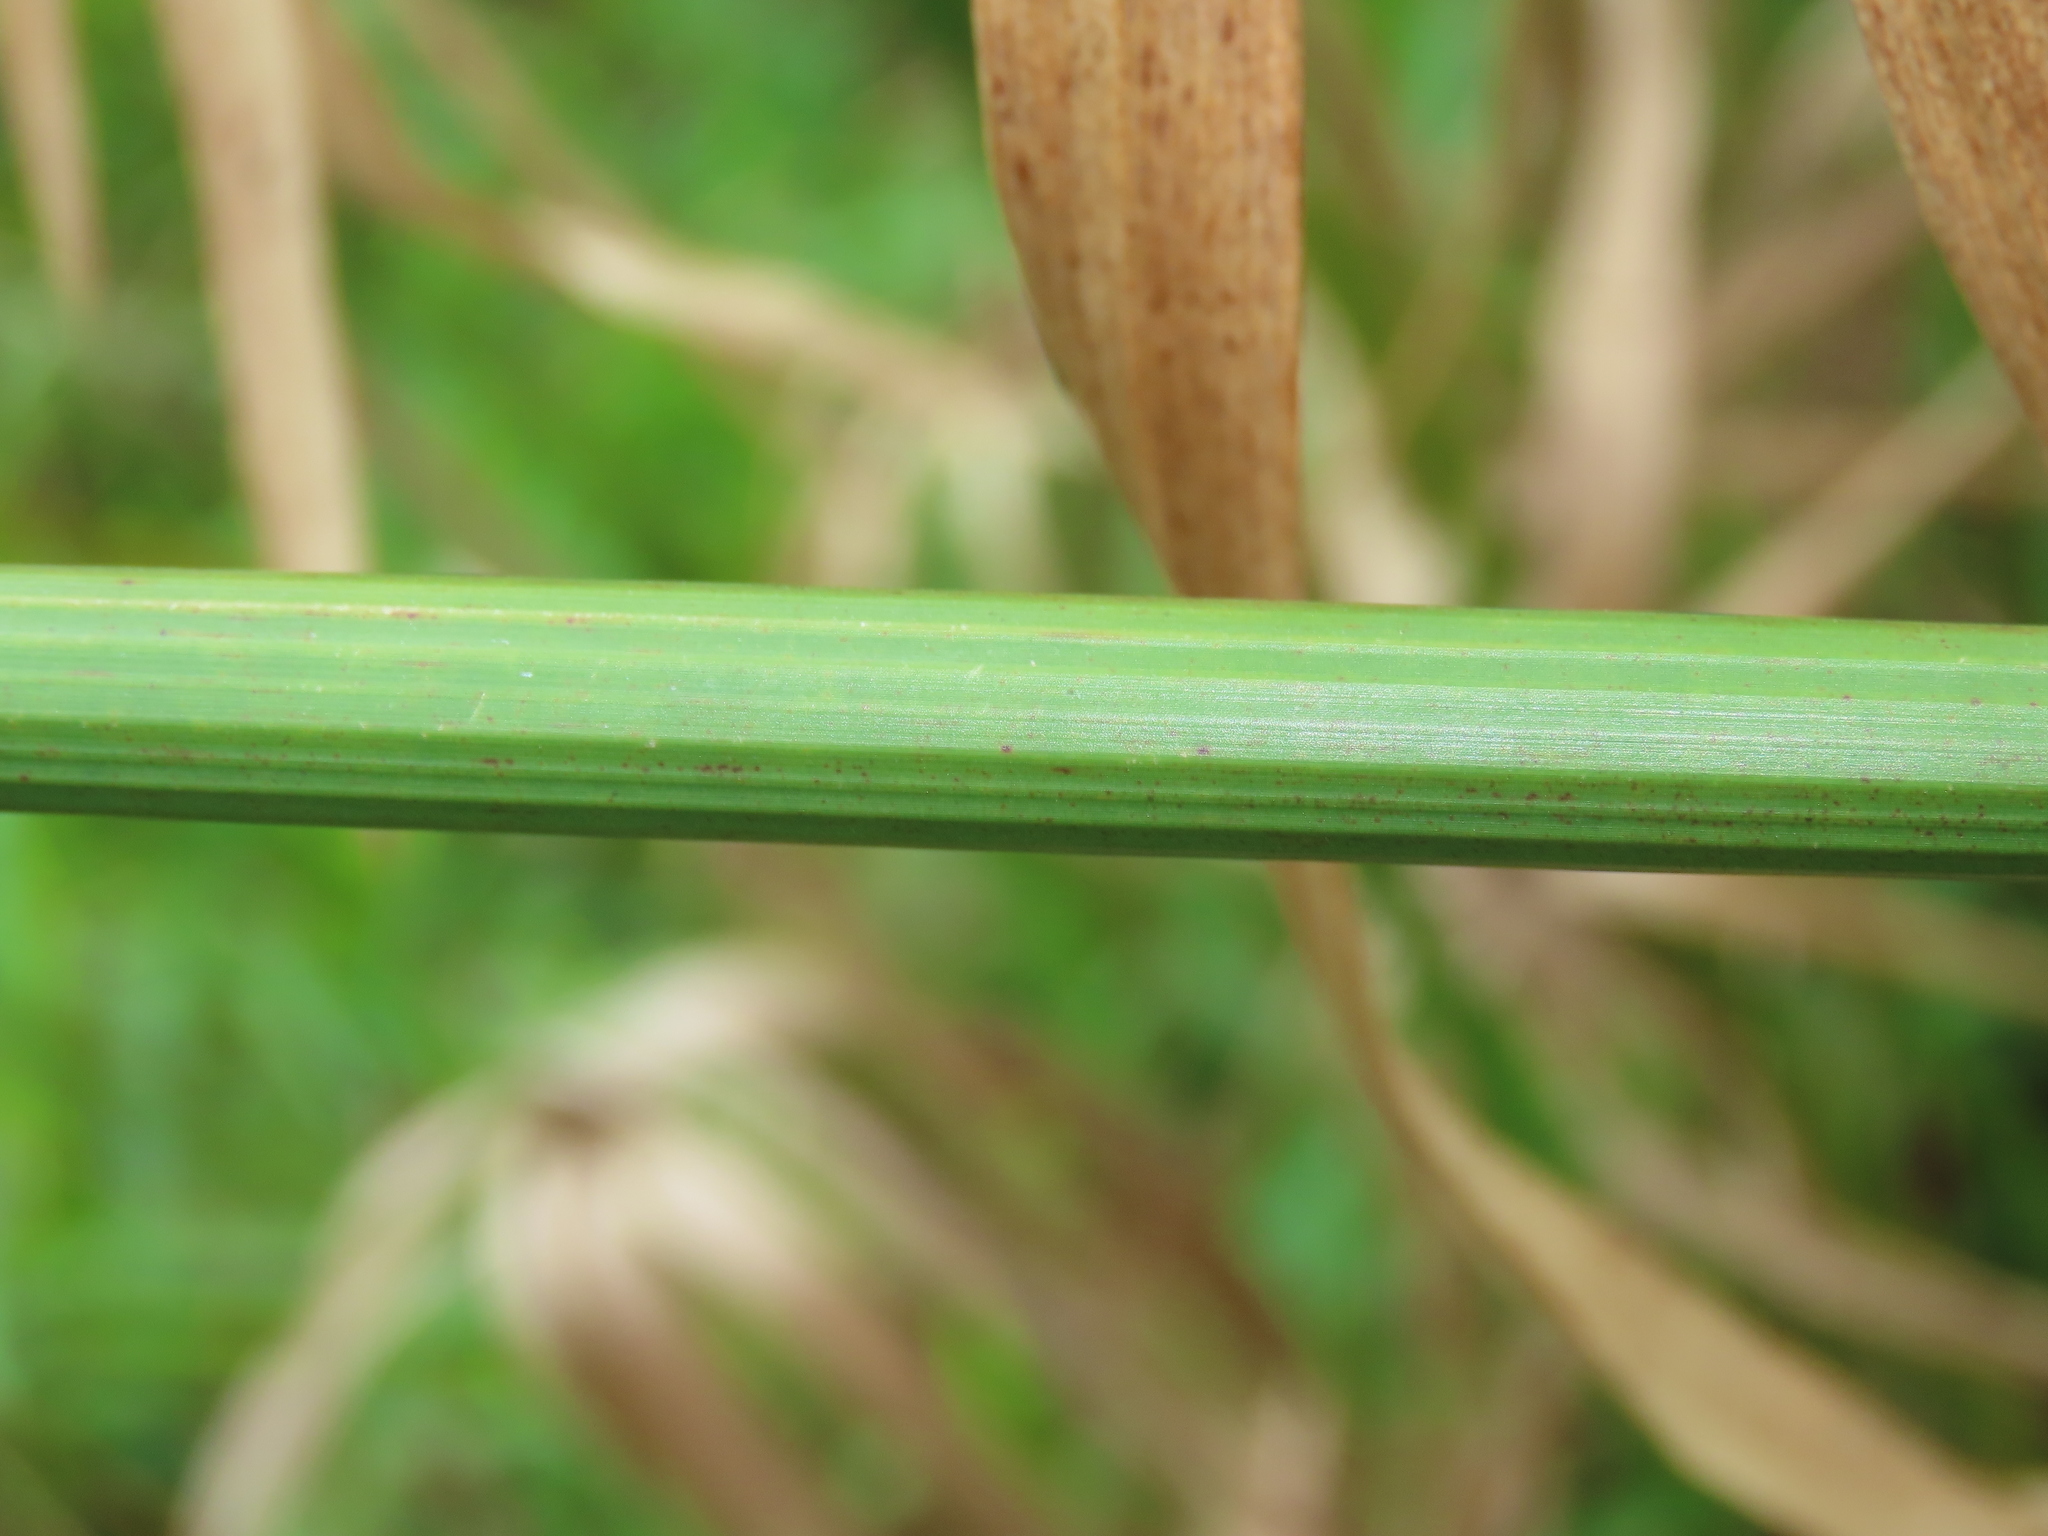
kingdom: Plantae
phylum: Tracheophyta
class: Liliopsida
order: Poales
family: Cyperaceae
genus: Cyperus
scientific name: Cyperus alternifolius
